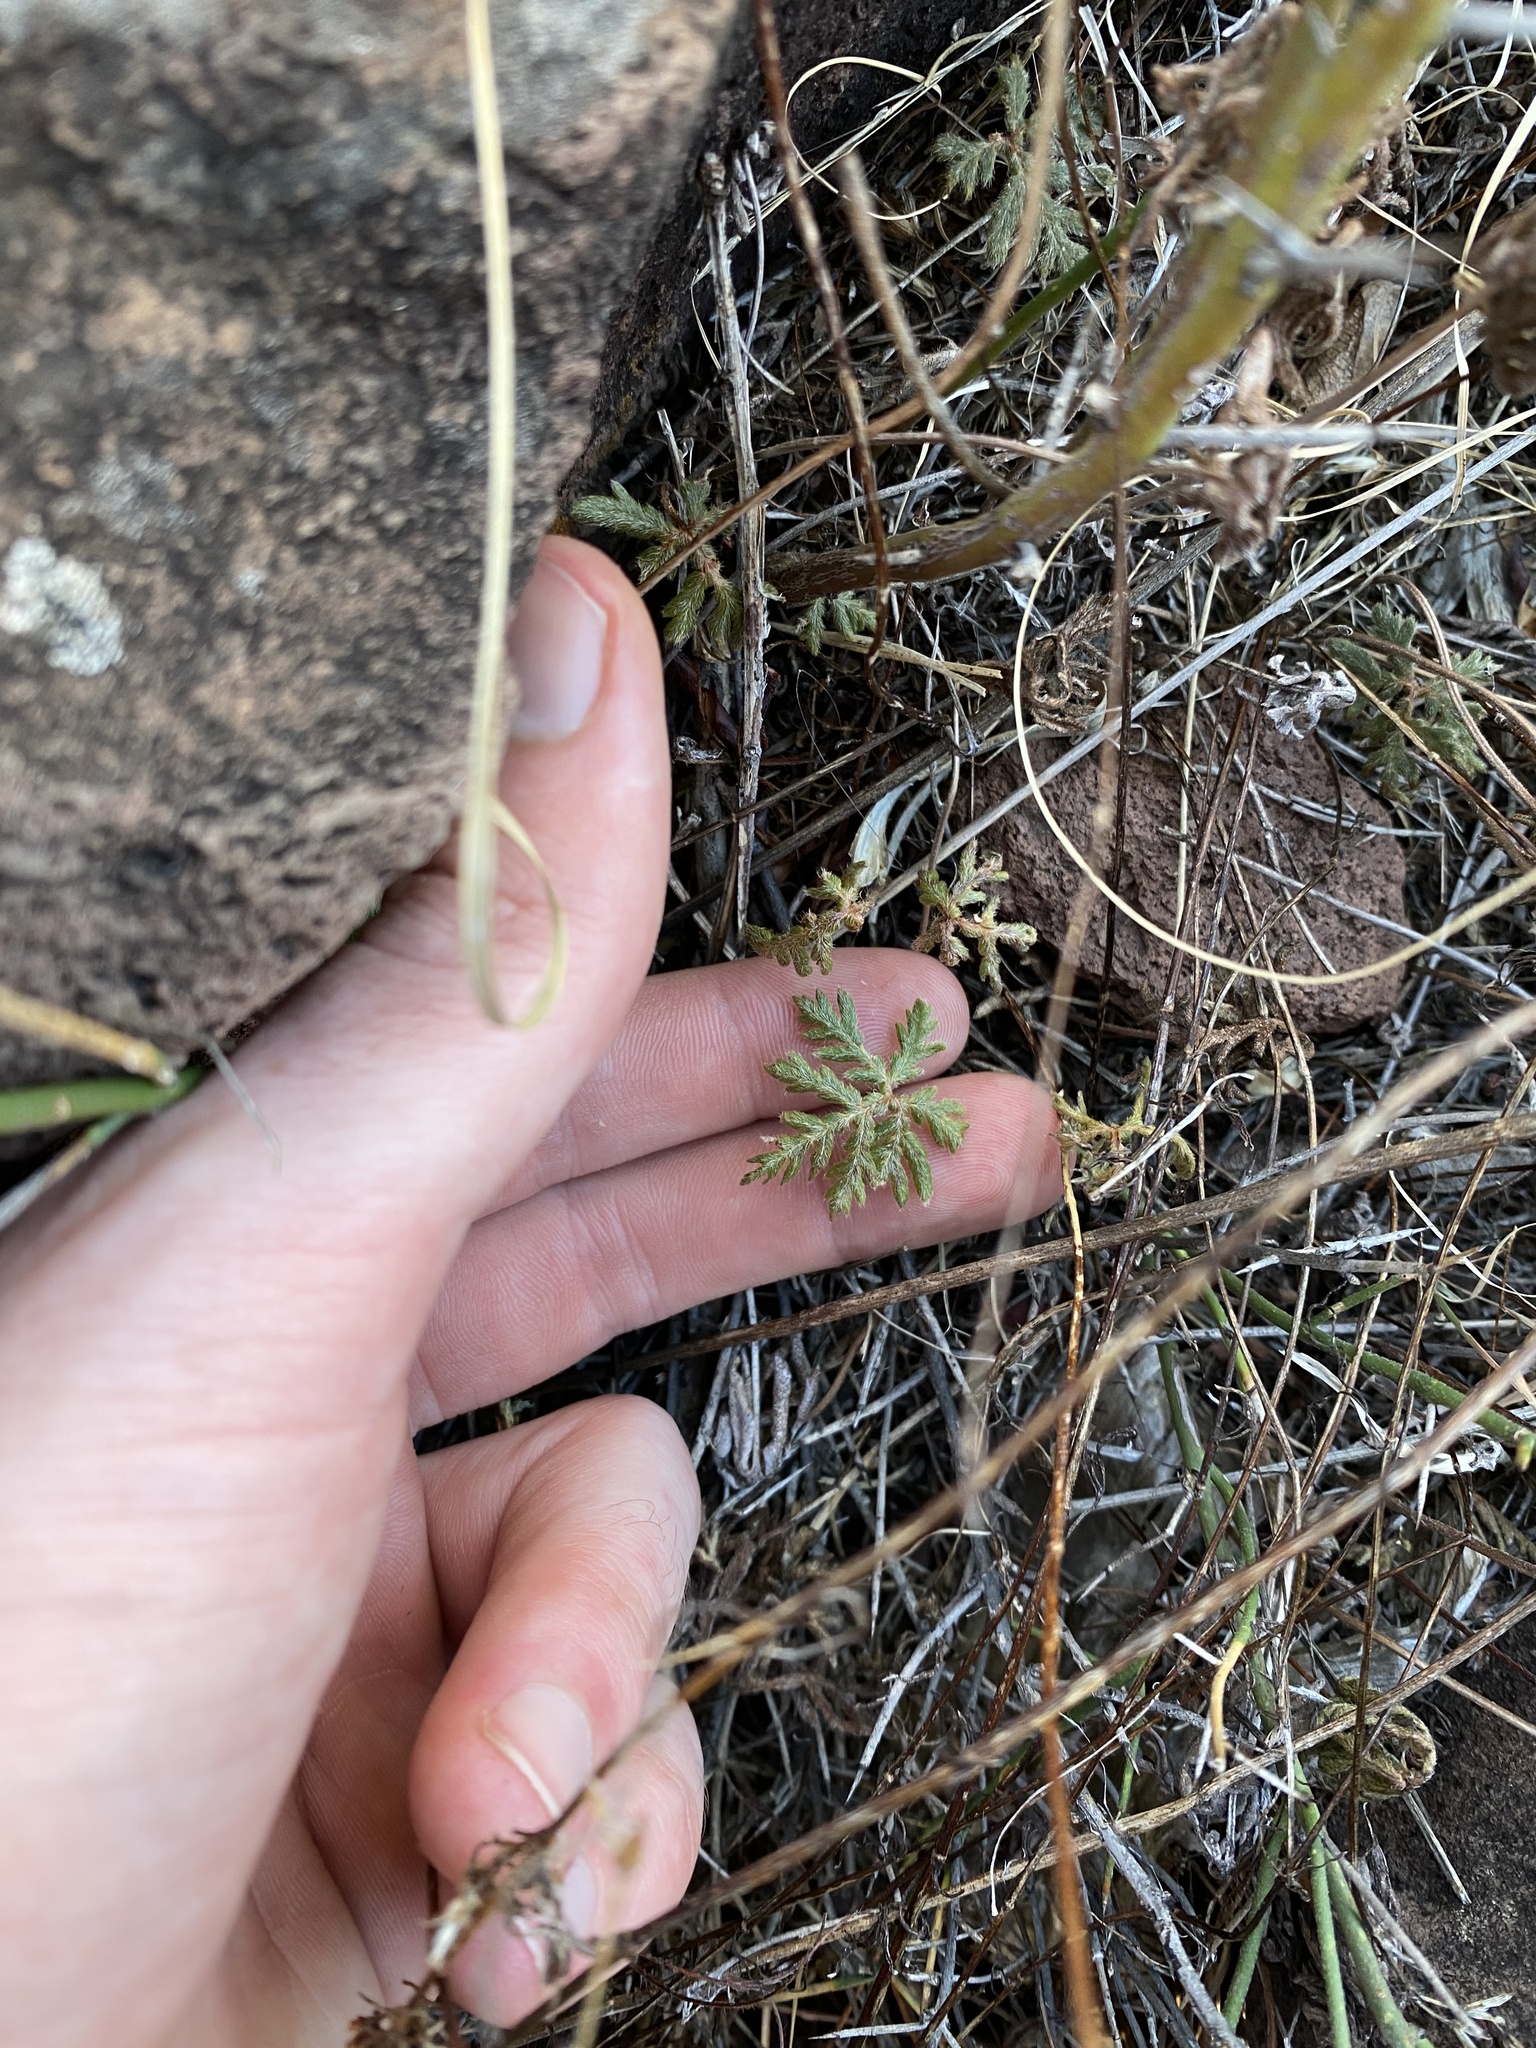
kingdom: Plantae
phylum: Tracheophyta
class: Polypodiopsida
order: Polypodiales
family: Pteridaceae
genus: Bommeria
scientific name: Bommeria hispida
